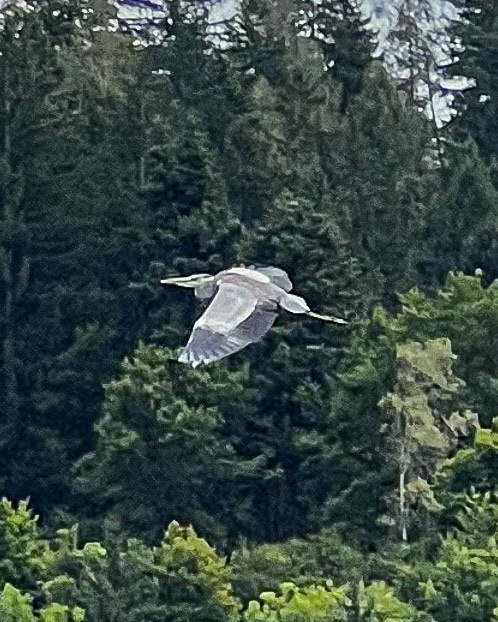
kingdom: Animalia
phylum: Chordata
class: Aves
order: Pelecaniformes
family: Ardeidae
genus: Ardea
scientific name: Ardea cinerea
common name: Grey heron
